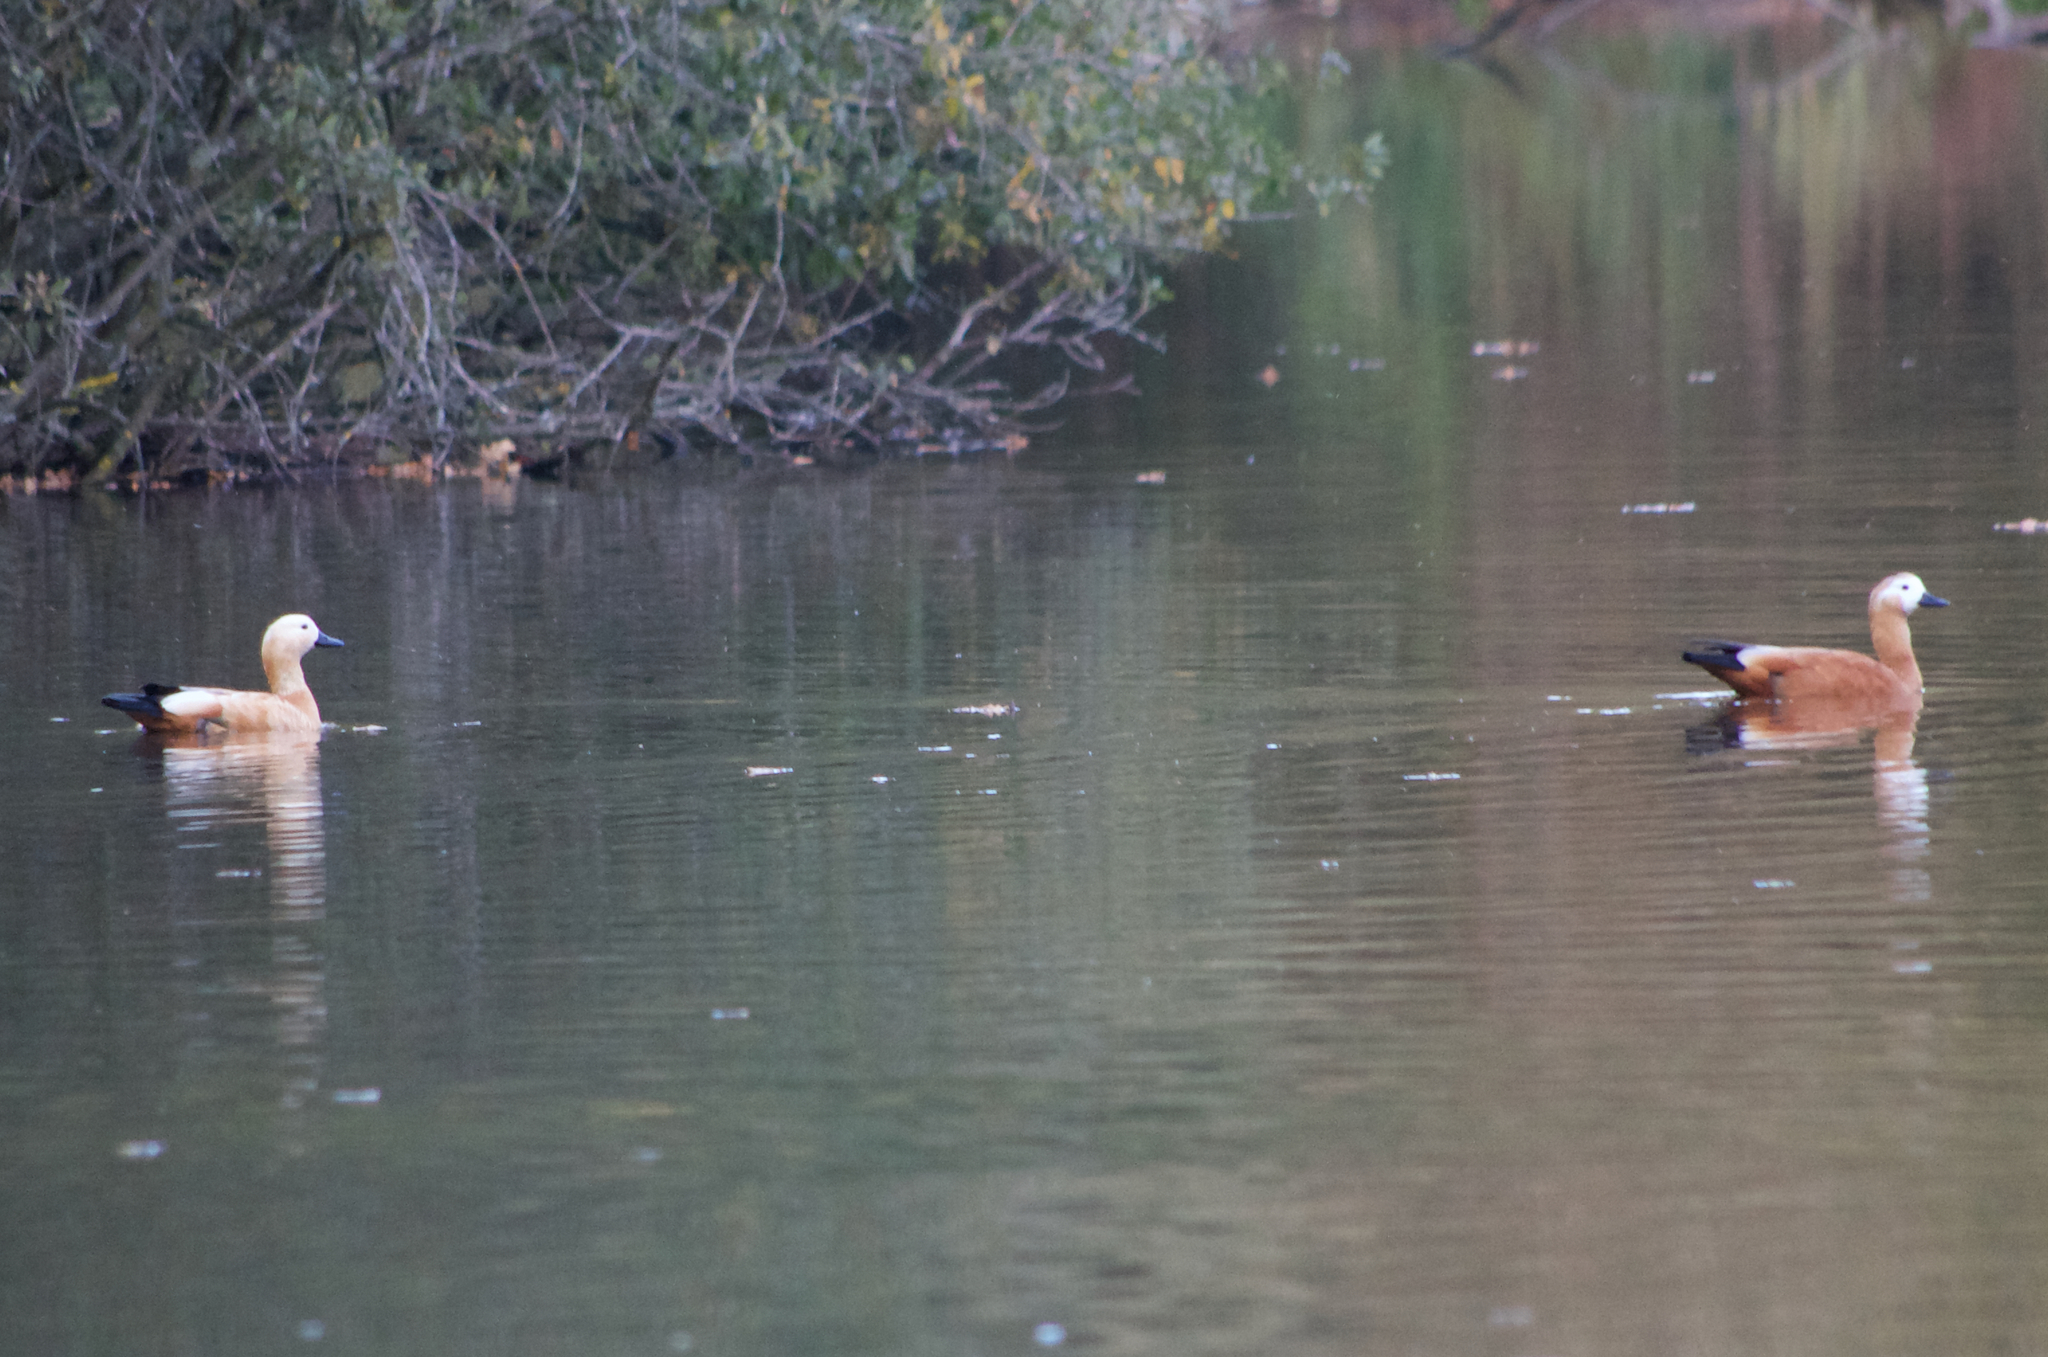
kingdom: Animalia
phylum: Chordata
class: Aves
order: Anseriformes
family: Anatidae
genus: Tadorna
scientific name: Tadorna ferruginea
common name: Ruddy shelduck
